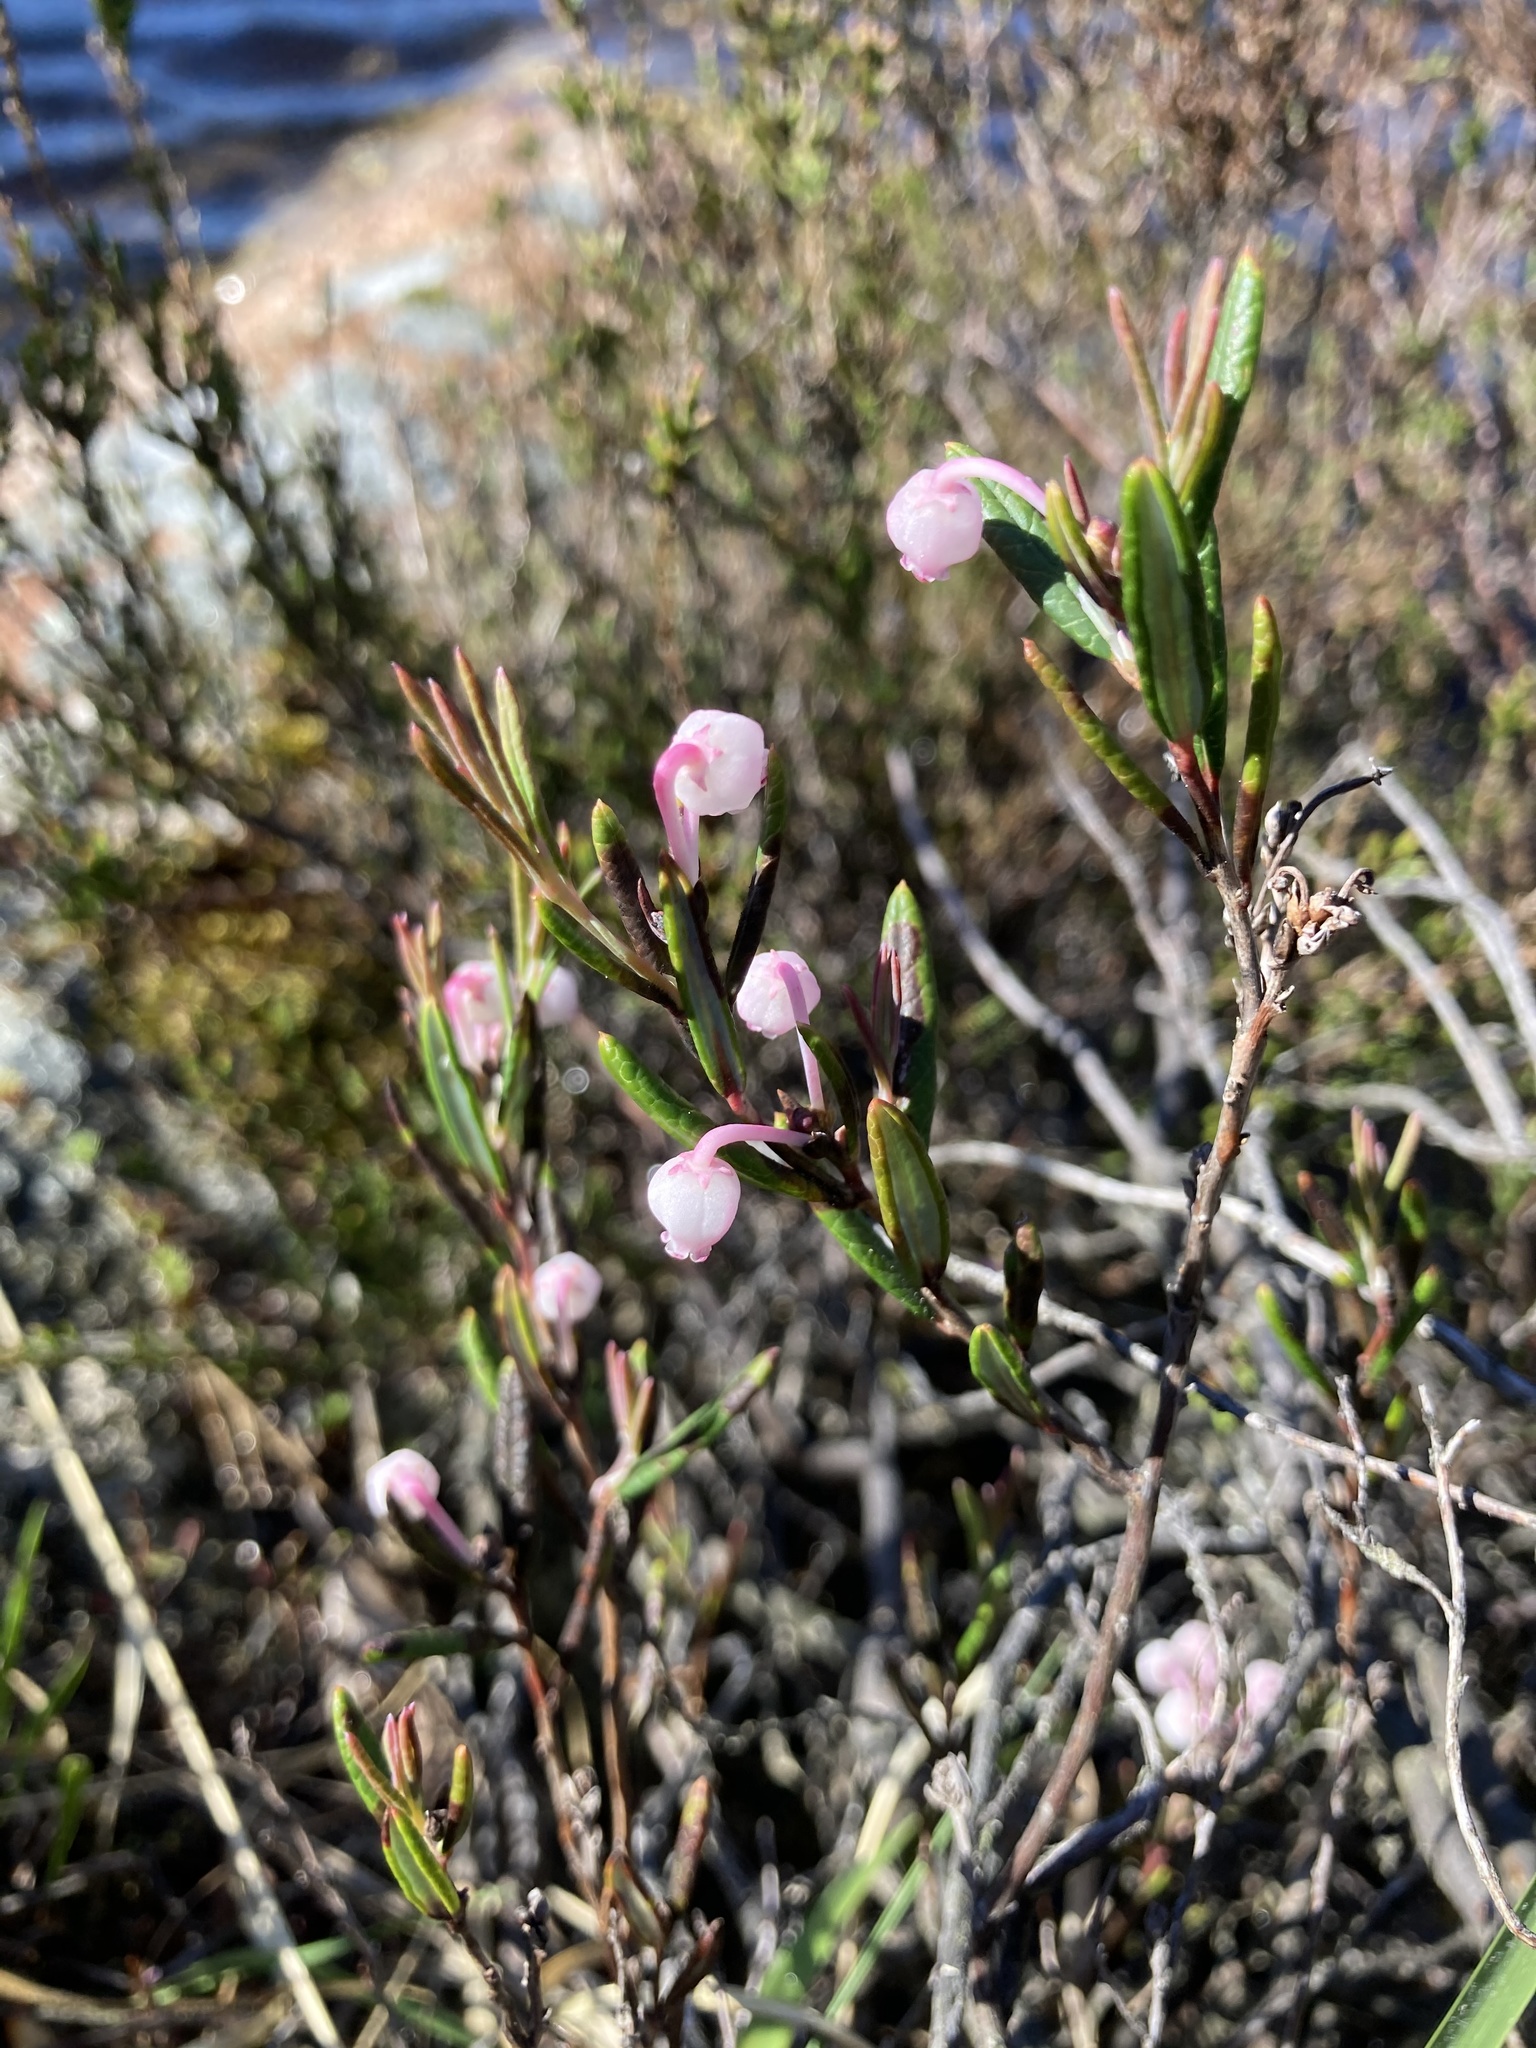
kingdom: Plantae
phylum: Tracheophyta
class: Magnoliopsida
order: Ericales
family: Ericaceae
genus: Andromeda
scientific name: Andromeda polifolia
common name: Bog-rosemary
